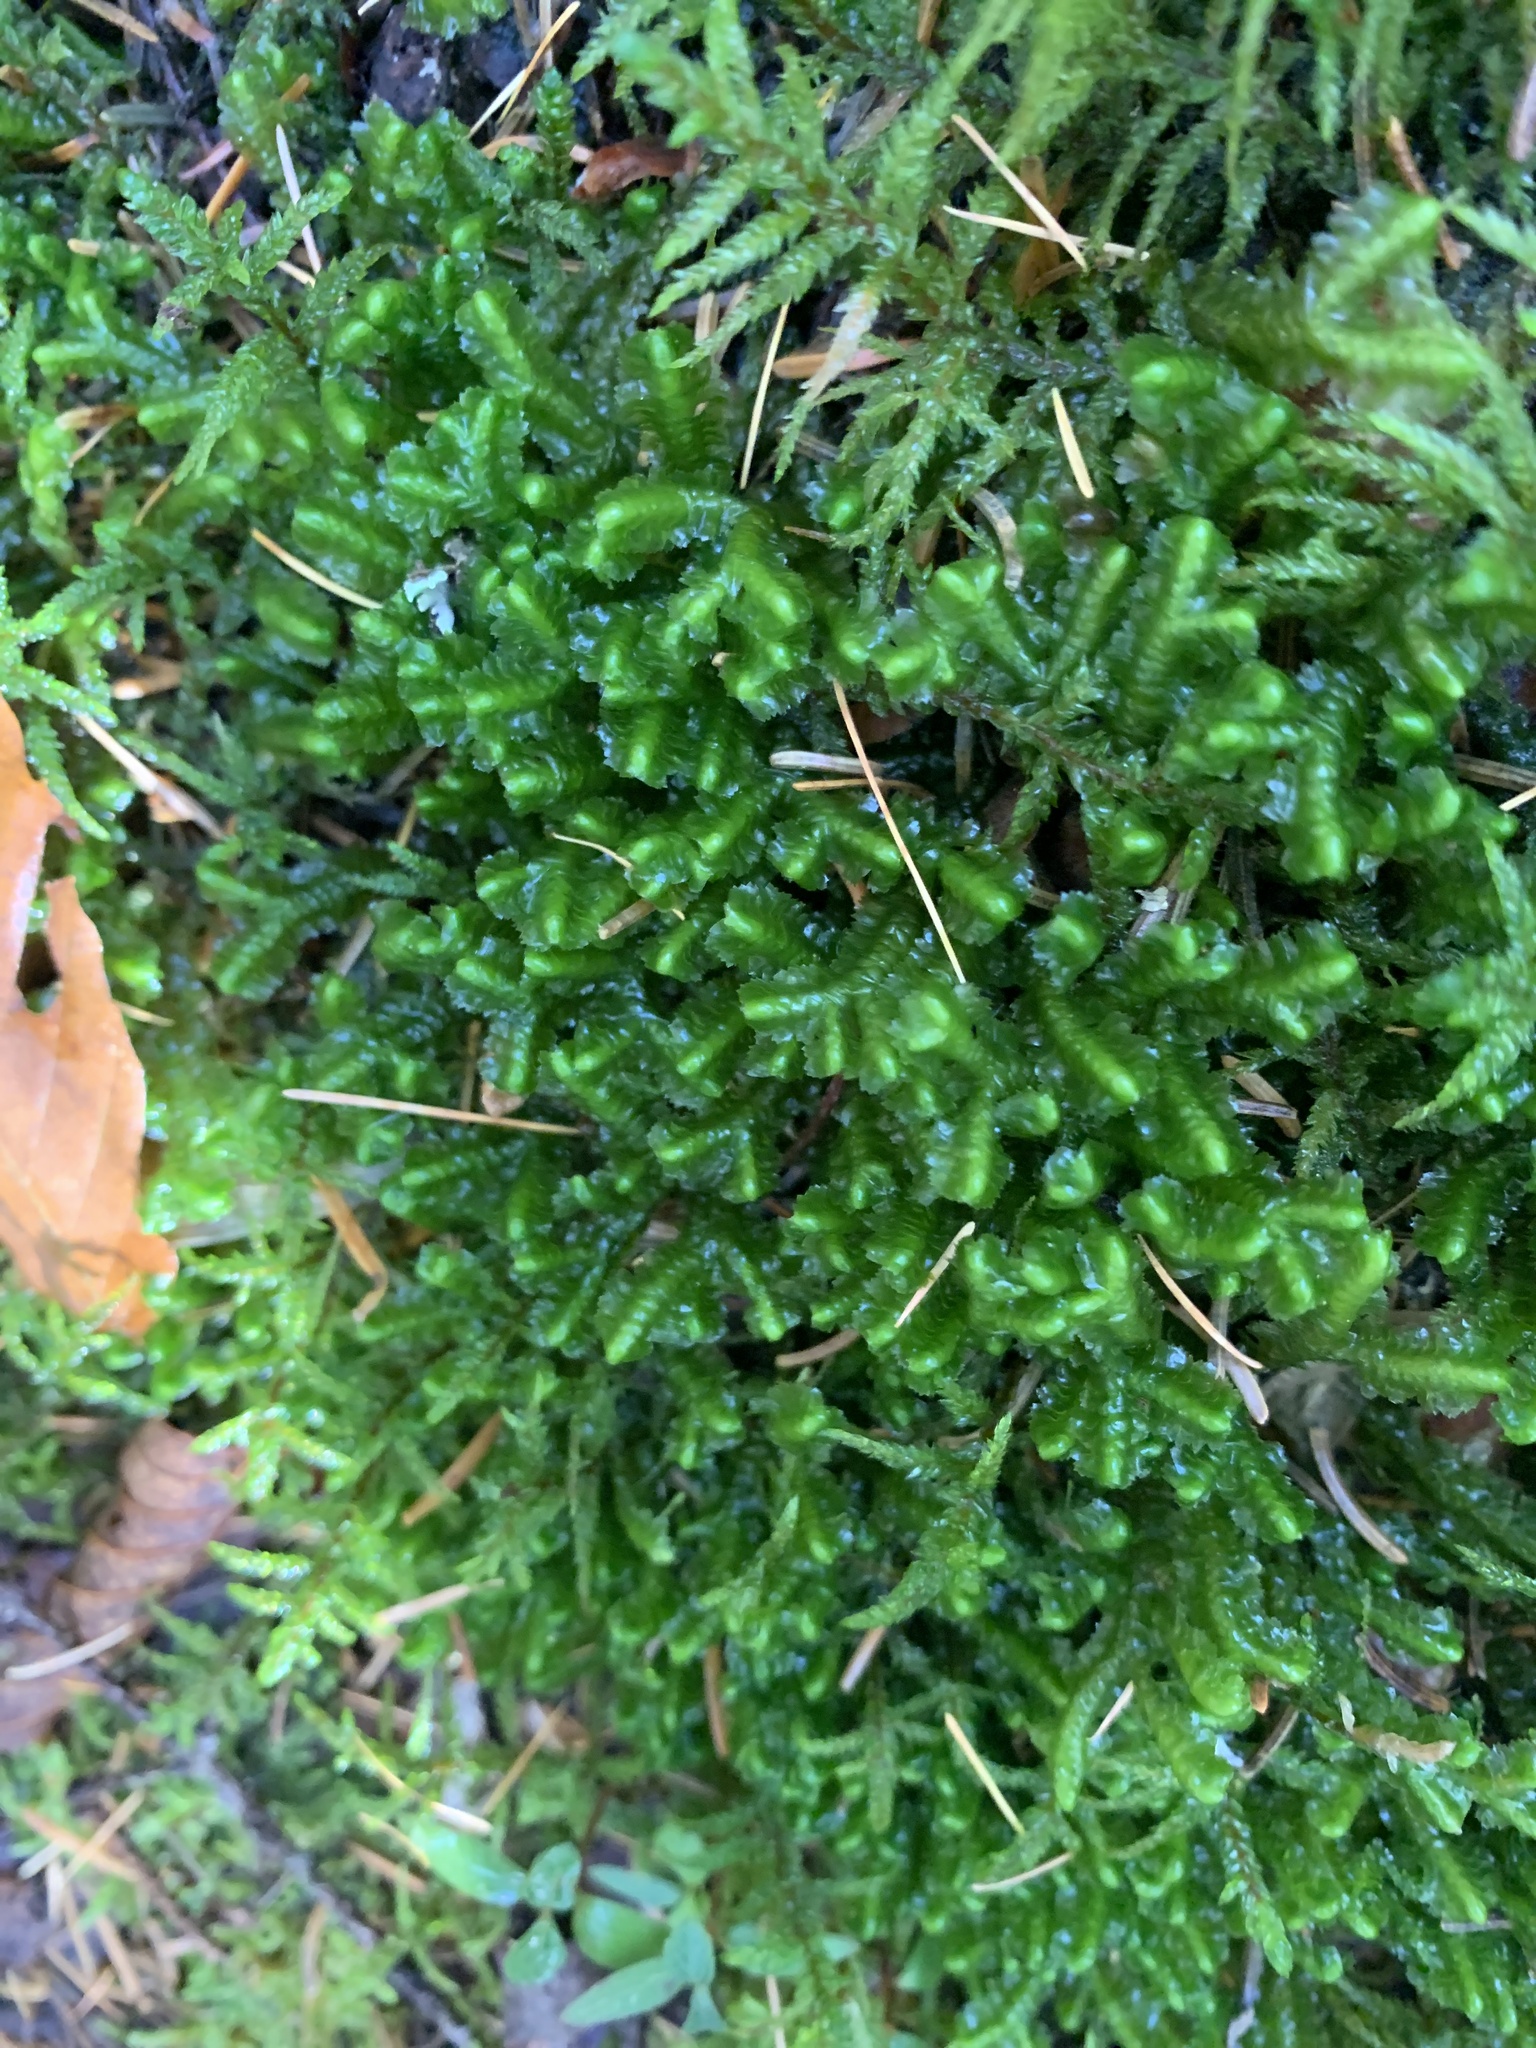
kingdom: Plantae
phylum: Marchantiophyta
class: Jungermanniopsida
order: Jungermanniales
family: Lepidoziaceae
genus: Bazzania
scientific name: Bazzania trilobata
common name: Three-lobed whipwort
